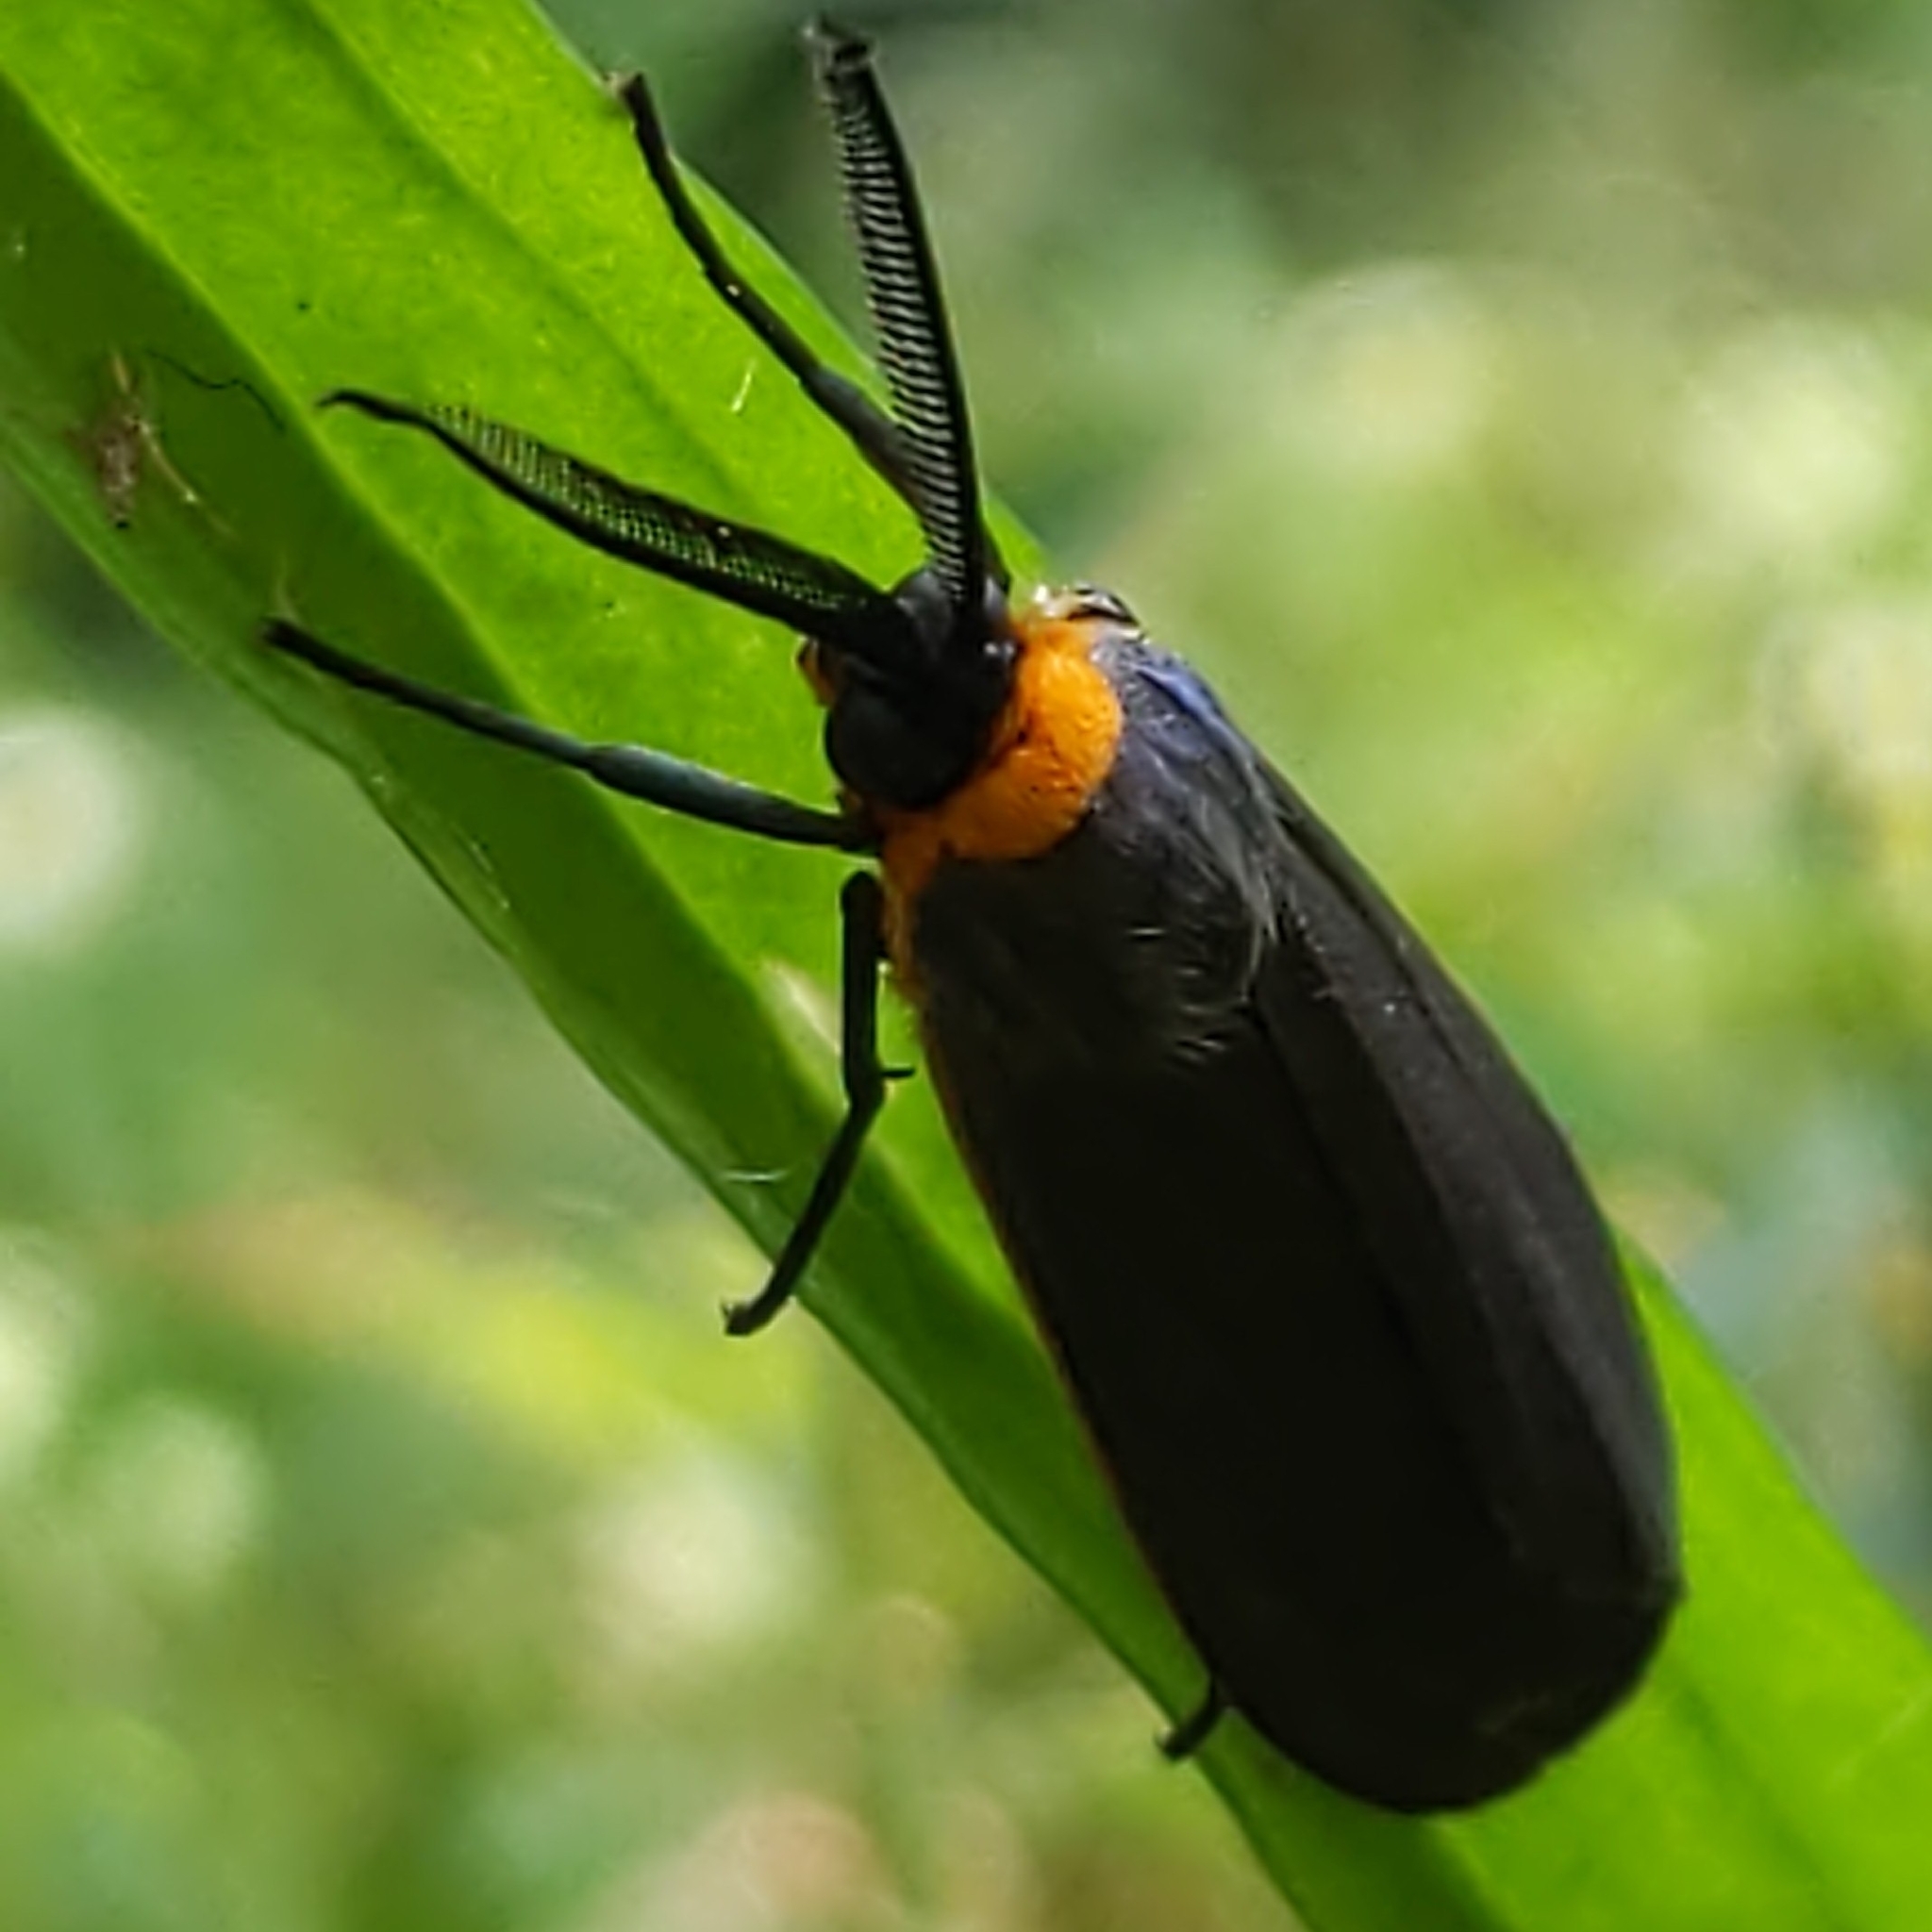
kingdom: Animalia
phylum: Arthropoda
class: Insecta
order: Lepidoptera
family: Erebidae
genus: Cisseps
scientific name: Cisseps fulvicollis
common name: Yellow-collared scape moth
